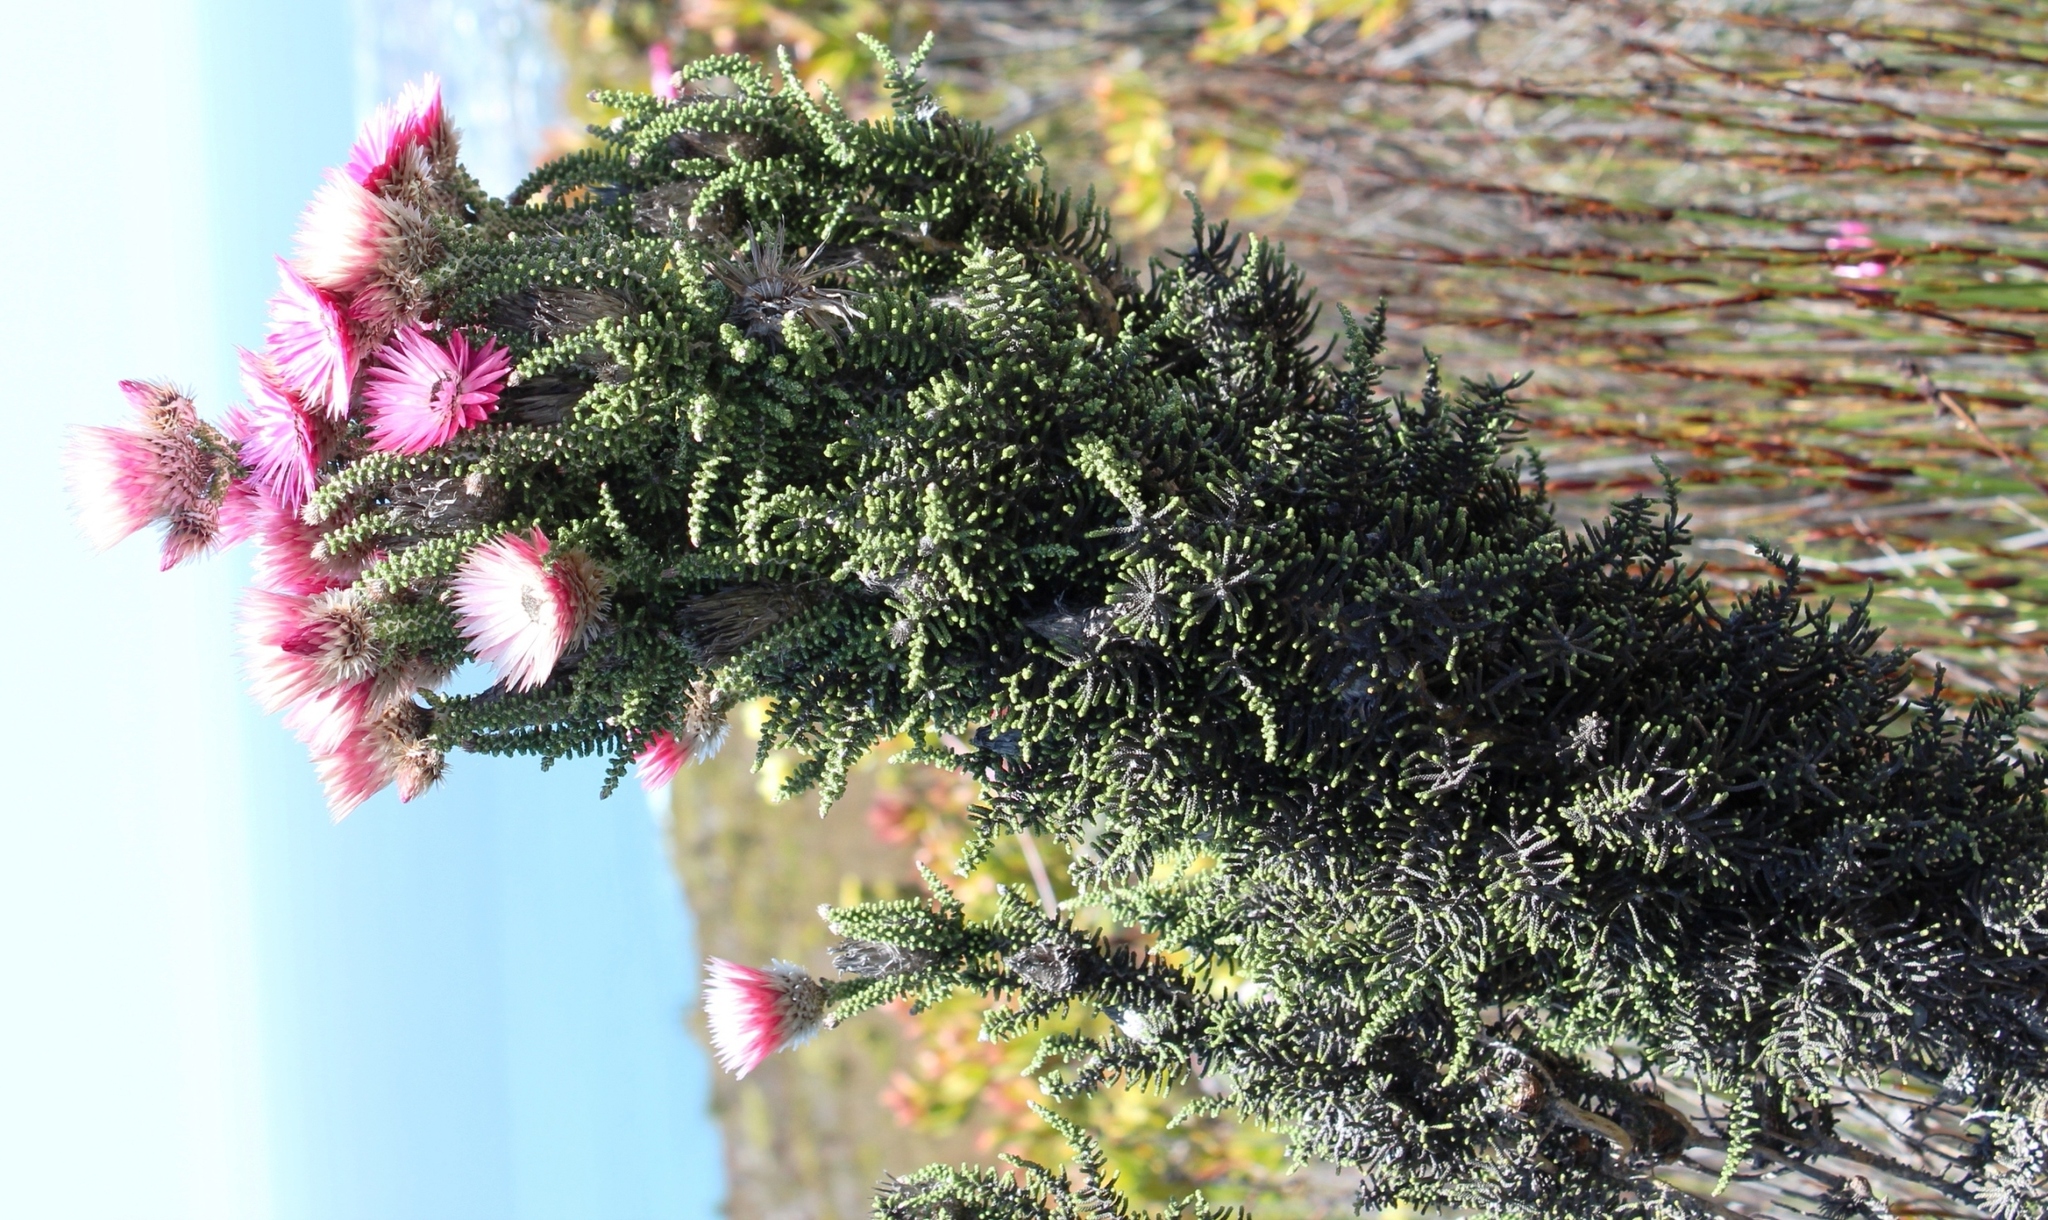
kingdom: Plantae
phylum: Tracheophyta
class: Magnoliopsida
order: Asterales
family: Asteraceae
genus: Phaenocoma
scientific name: Phaenocoma prolifera
